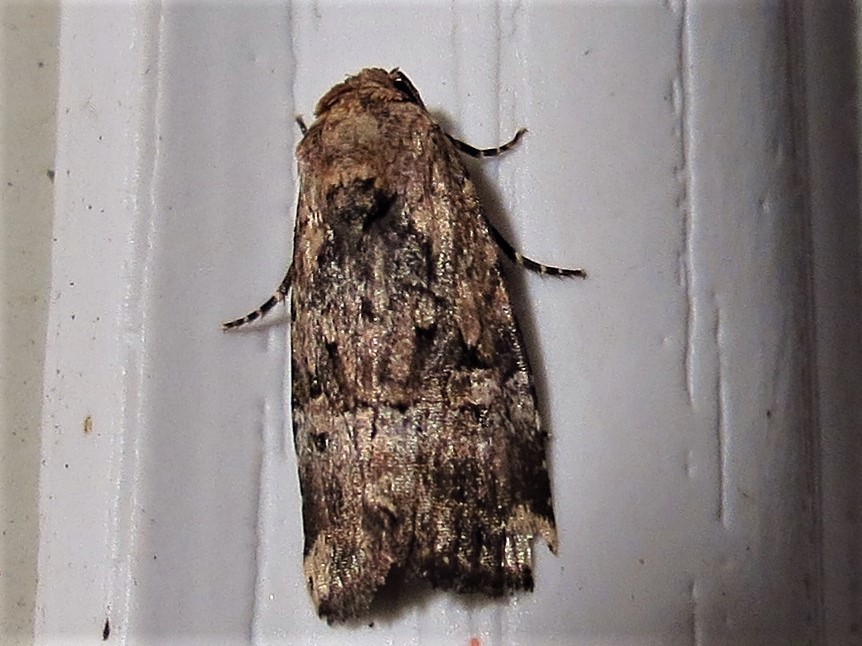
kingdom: Animalia
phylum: Arthropoda
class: Insecta
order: Lepidoptera
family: Noctuidae
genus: Elaphria
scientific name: Elaphria chalcedonia
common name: Chalcedony midget
